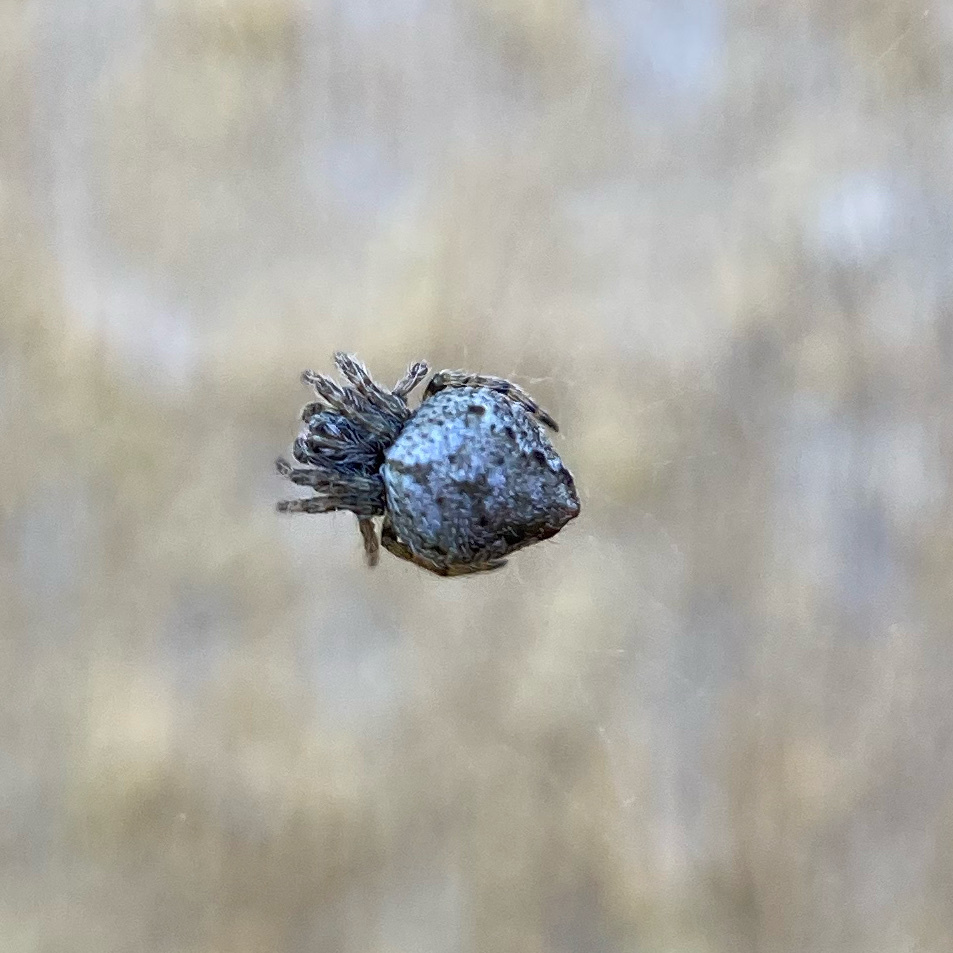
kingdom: Animalia
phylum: Arthropoda
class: Arachnida
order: Araneae
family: Araneidae
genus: Eriophora
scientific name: Eriophora pustulosa
